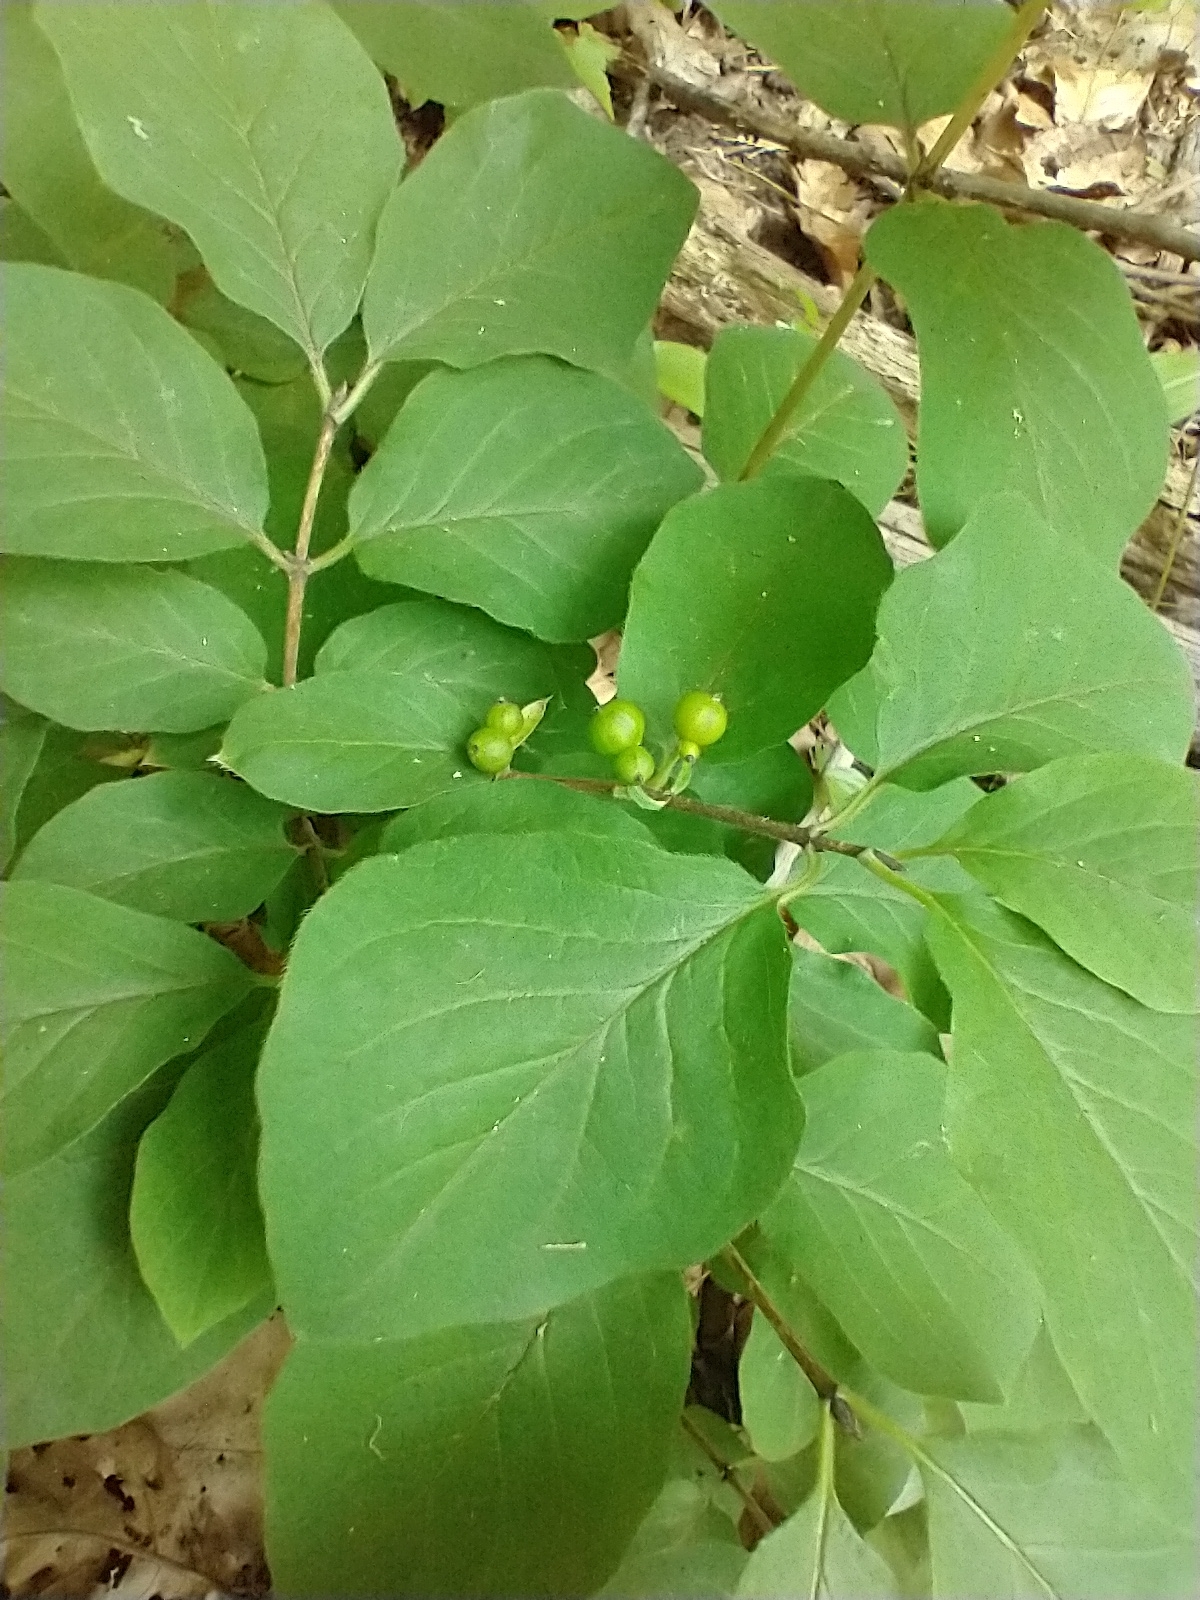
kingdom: Plantae
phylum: Tracheophyta
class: Magnoliopsida
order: Dipsacales
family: Caprifoliaceae
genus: Lonicera
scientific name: Lonicera xylosteum
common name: Fly honeysuckle
